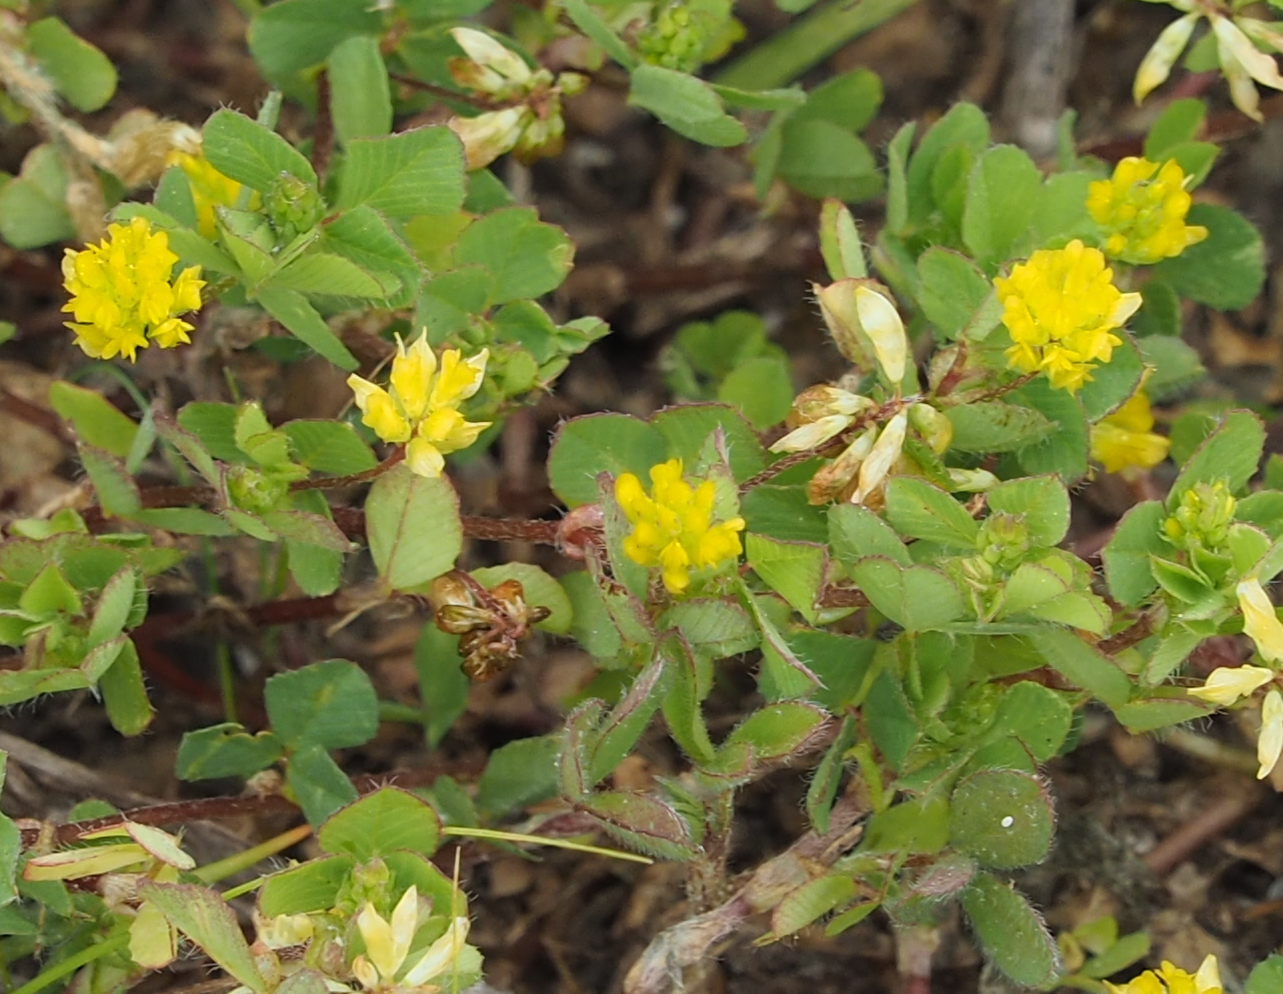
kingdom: Plantae
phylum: Tracheophyta
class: Magnoliopsida
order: Fabales
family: Fabaceae
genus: Trifolium
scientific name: Trifolium dubium
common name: Suckling clover
